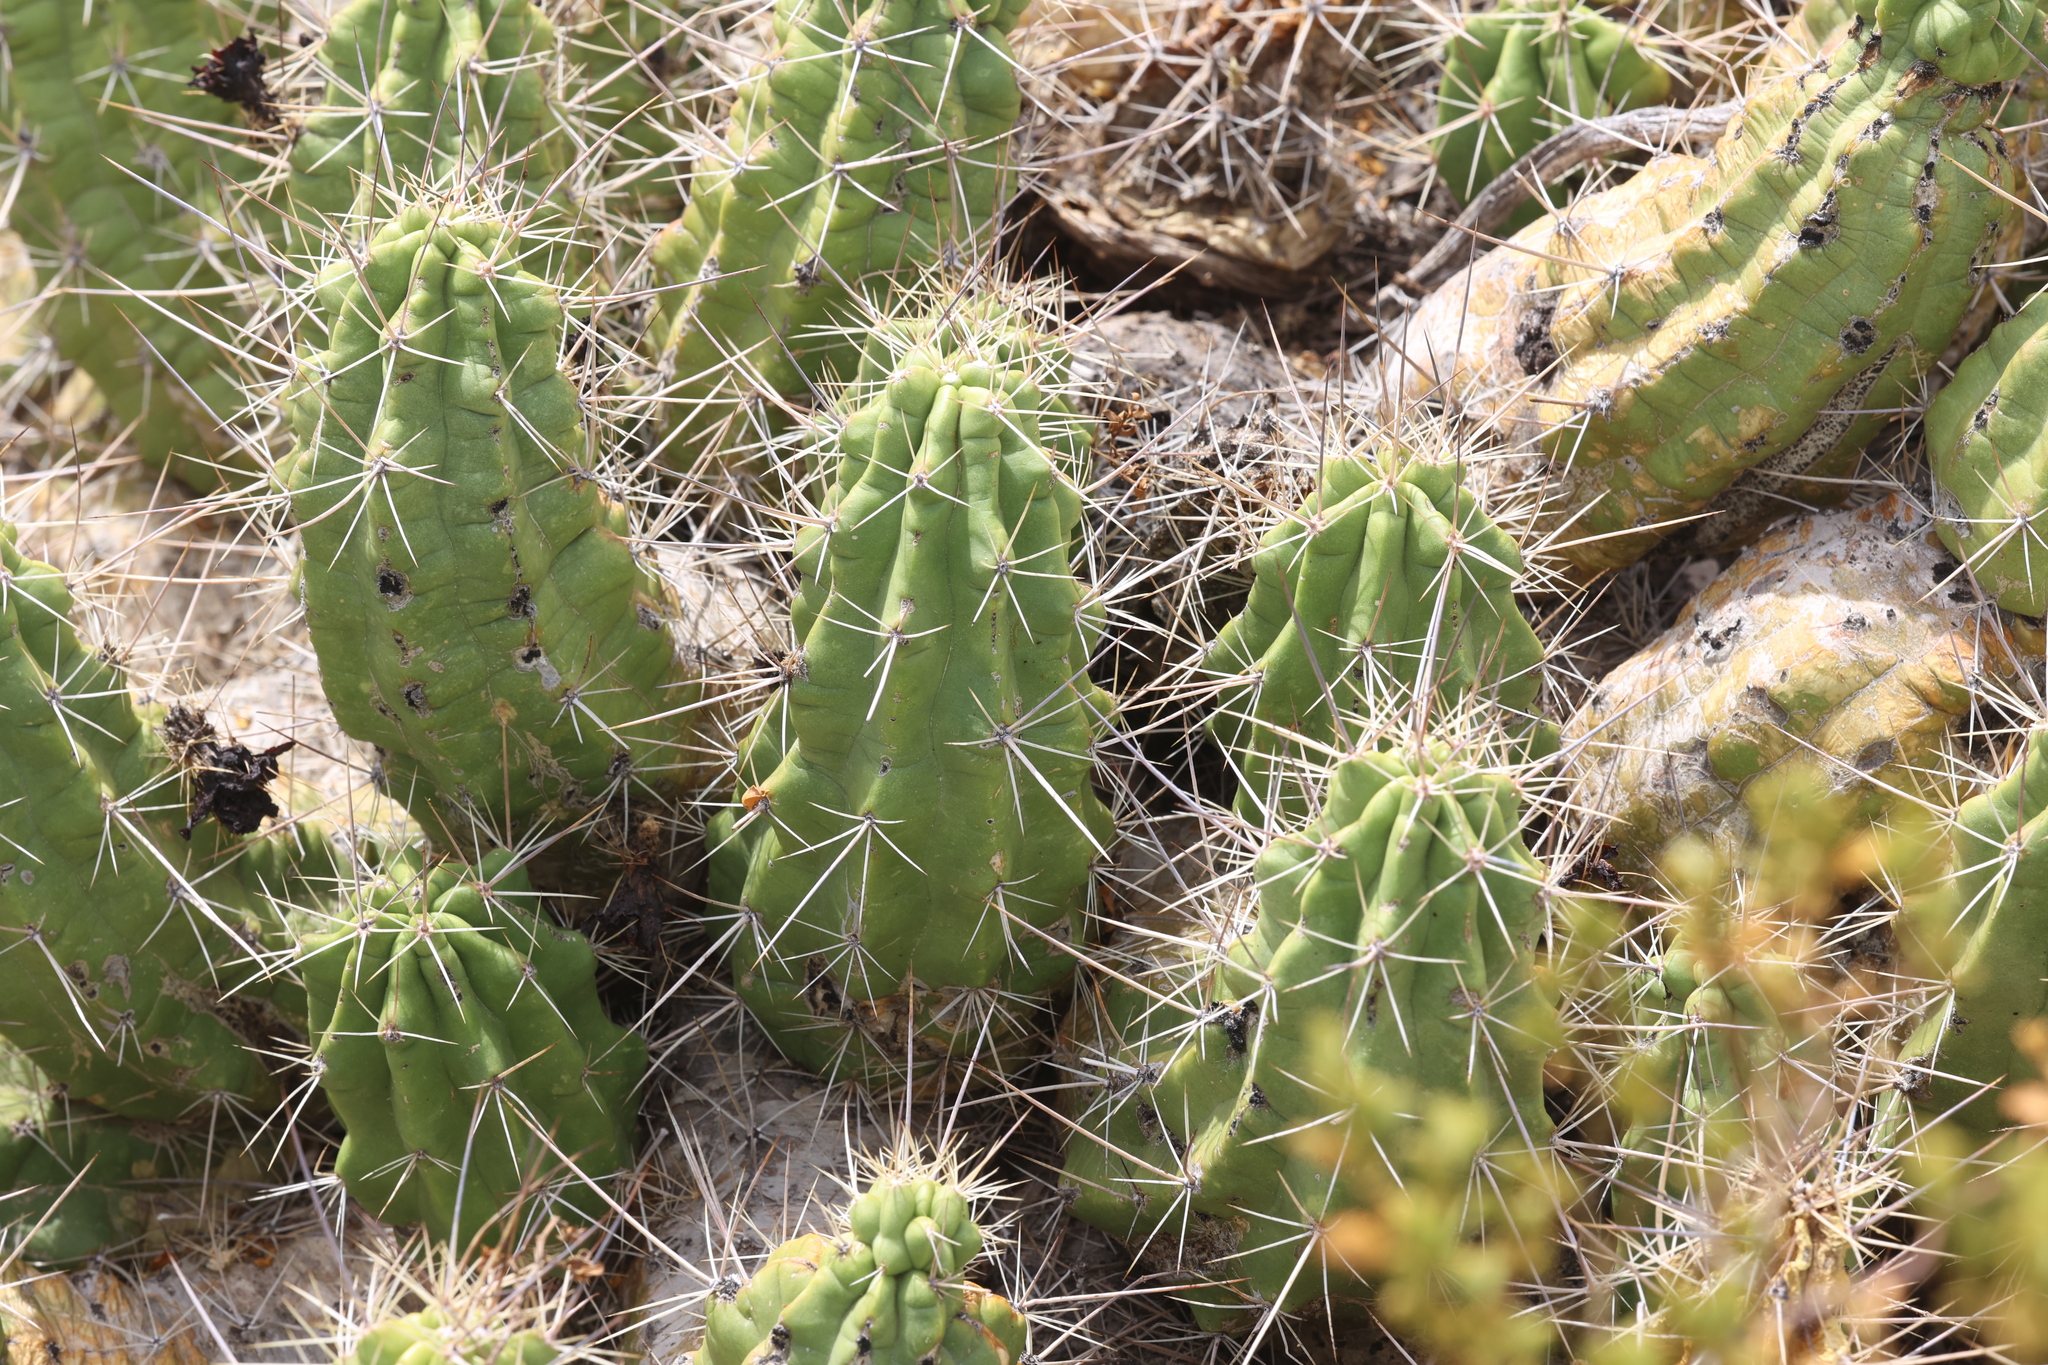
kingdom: Plantae
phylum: Tracheophyta
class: Magnoliopsida
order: Caryophyllales
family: Cactaceae
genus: Echinocereus
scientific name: Echinocereus enneacanthus
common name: Pitaya
